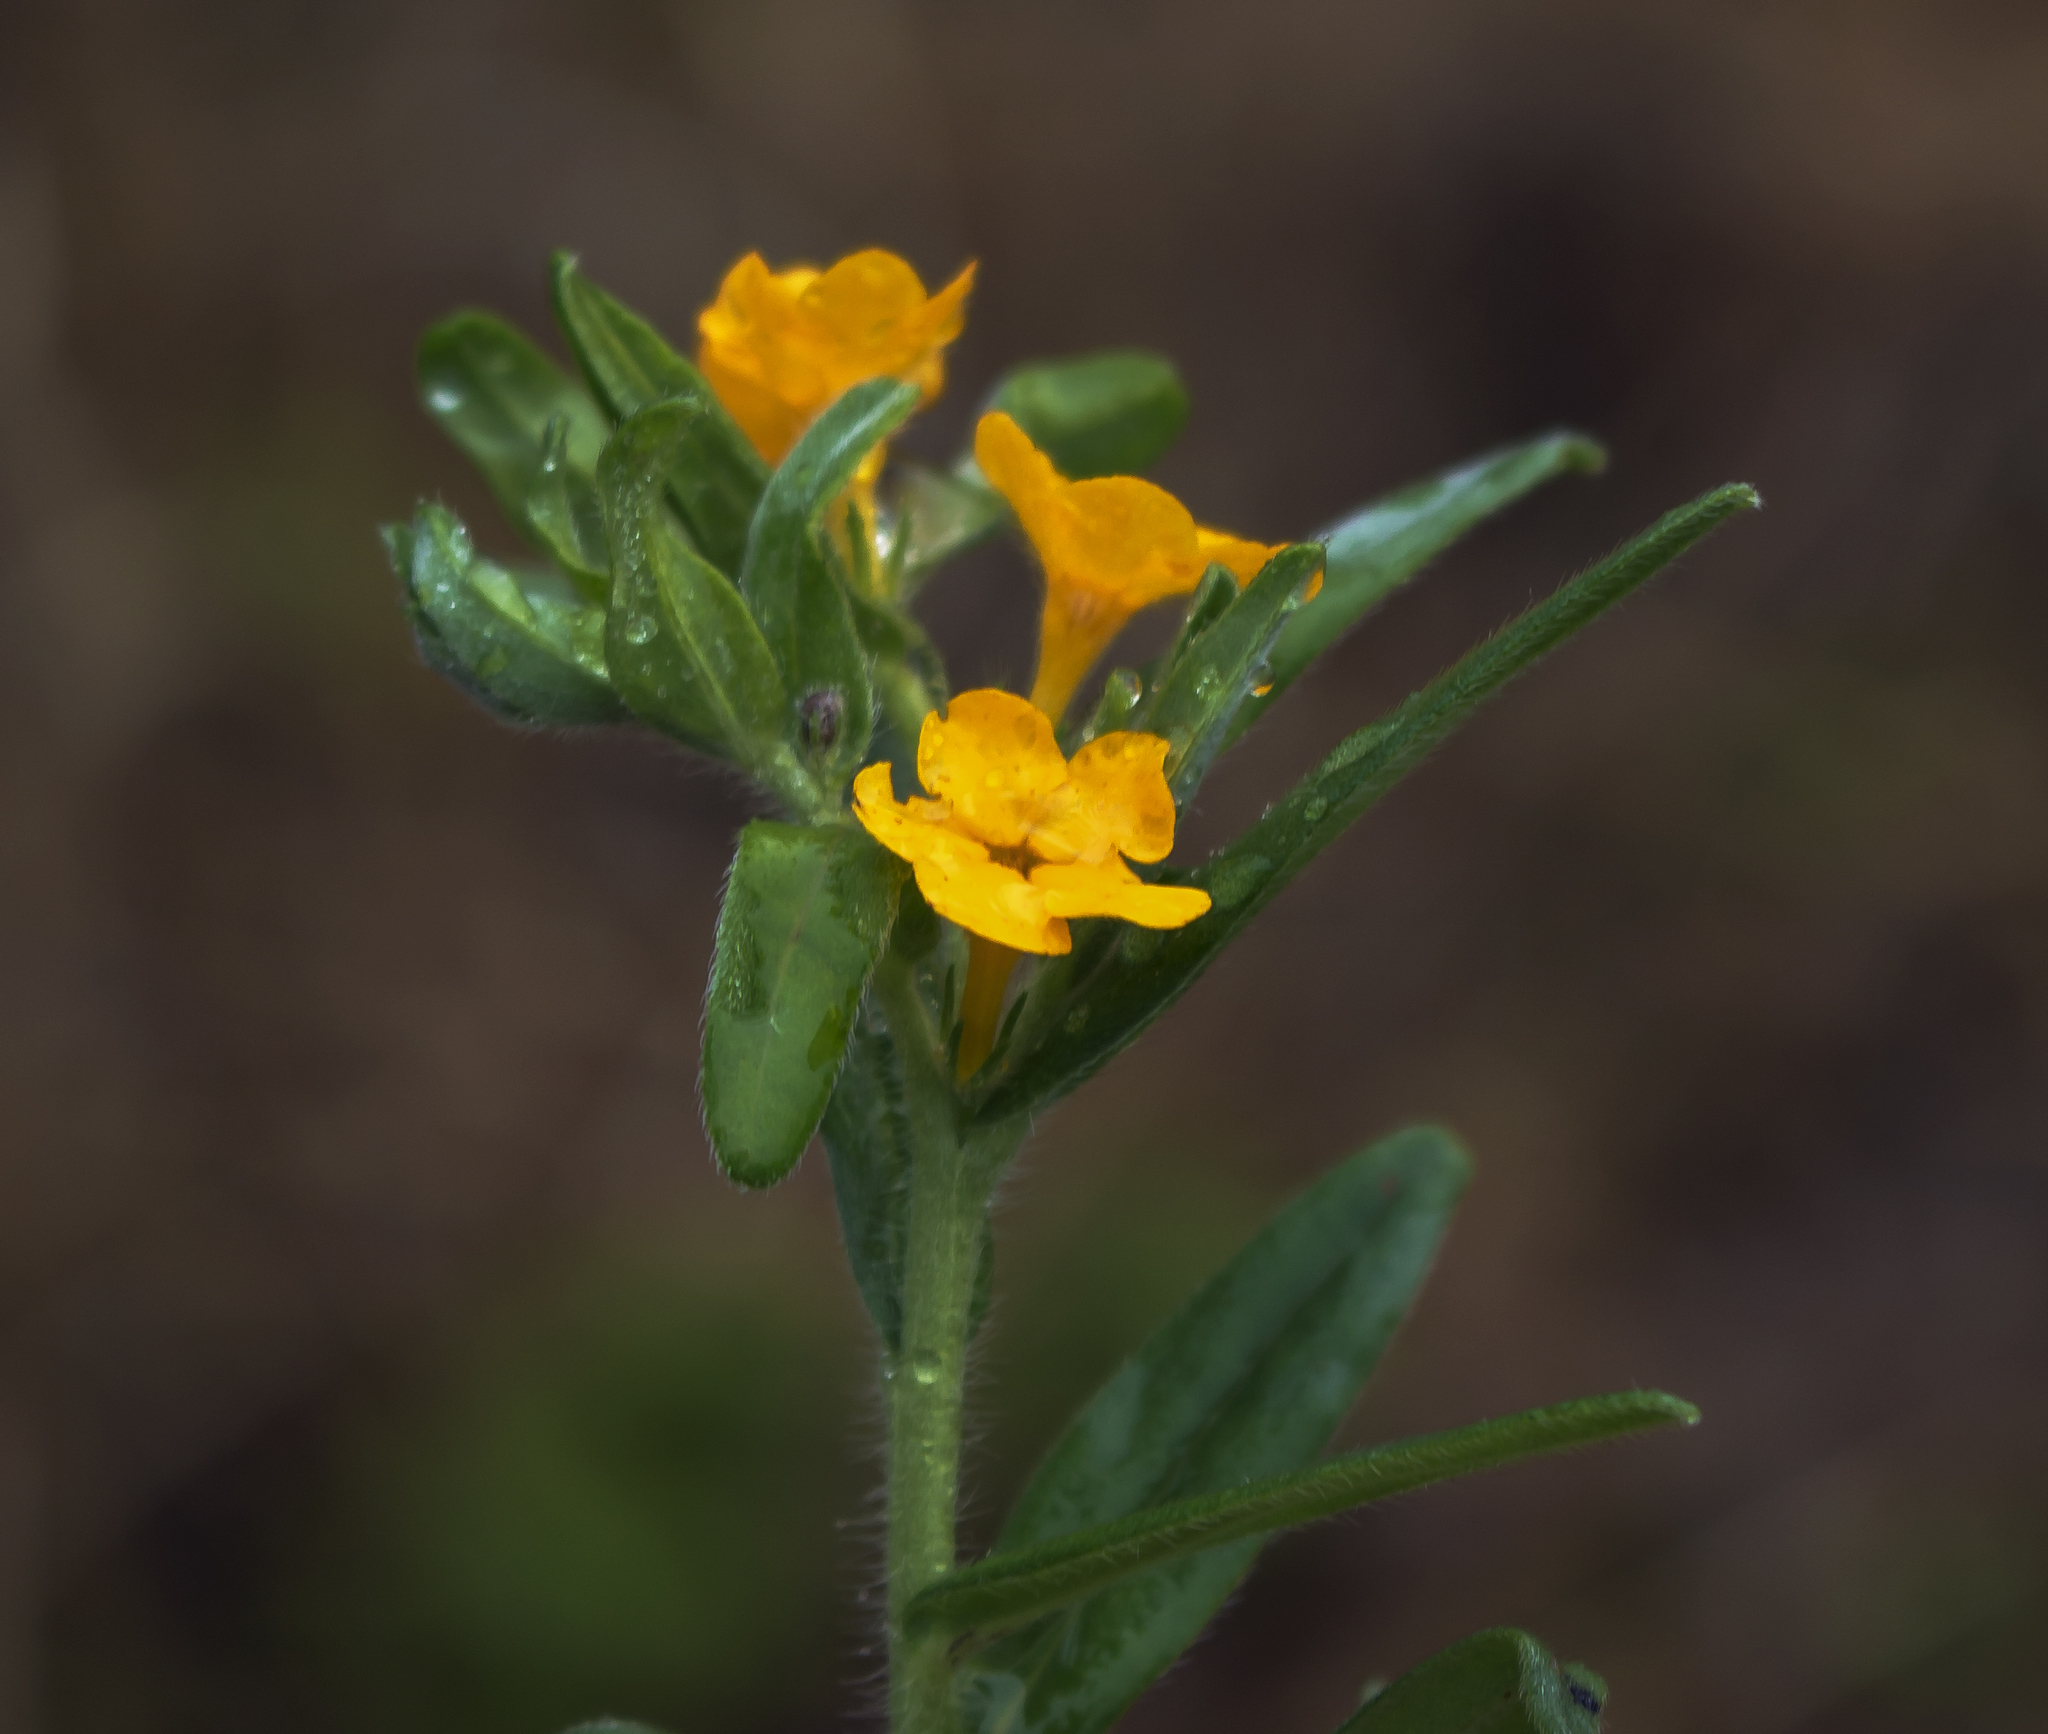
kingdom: Plantae
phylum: Tracheophyta
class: Magnoliopsida
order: Boraginales
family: Boraginaceae
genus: Lithospermum
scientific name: Lithospermum canescens
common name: Hoary puccoon
